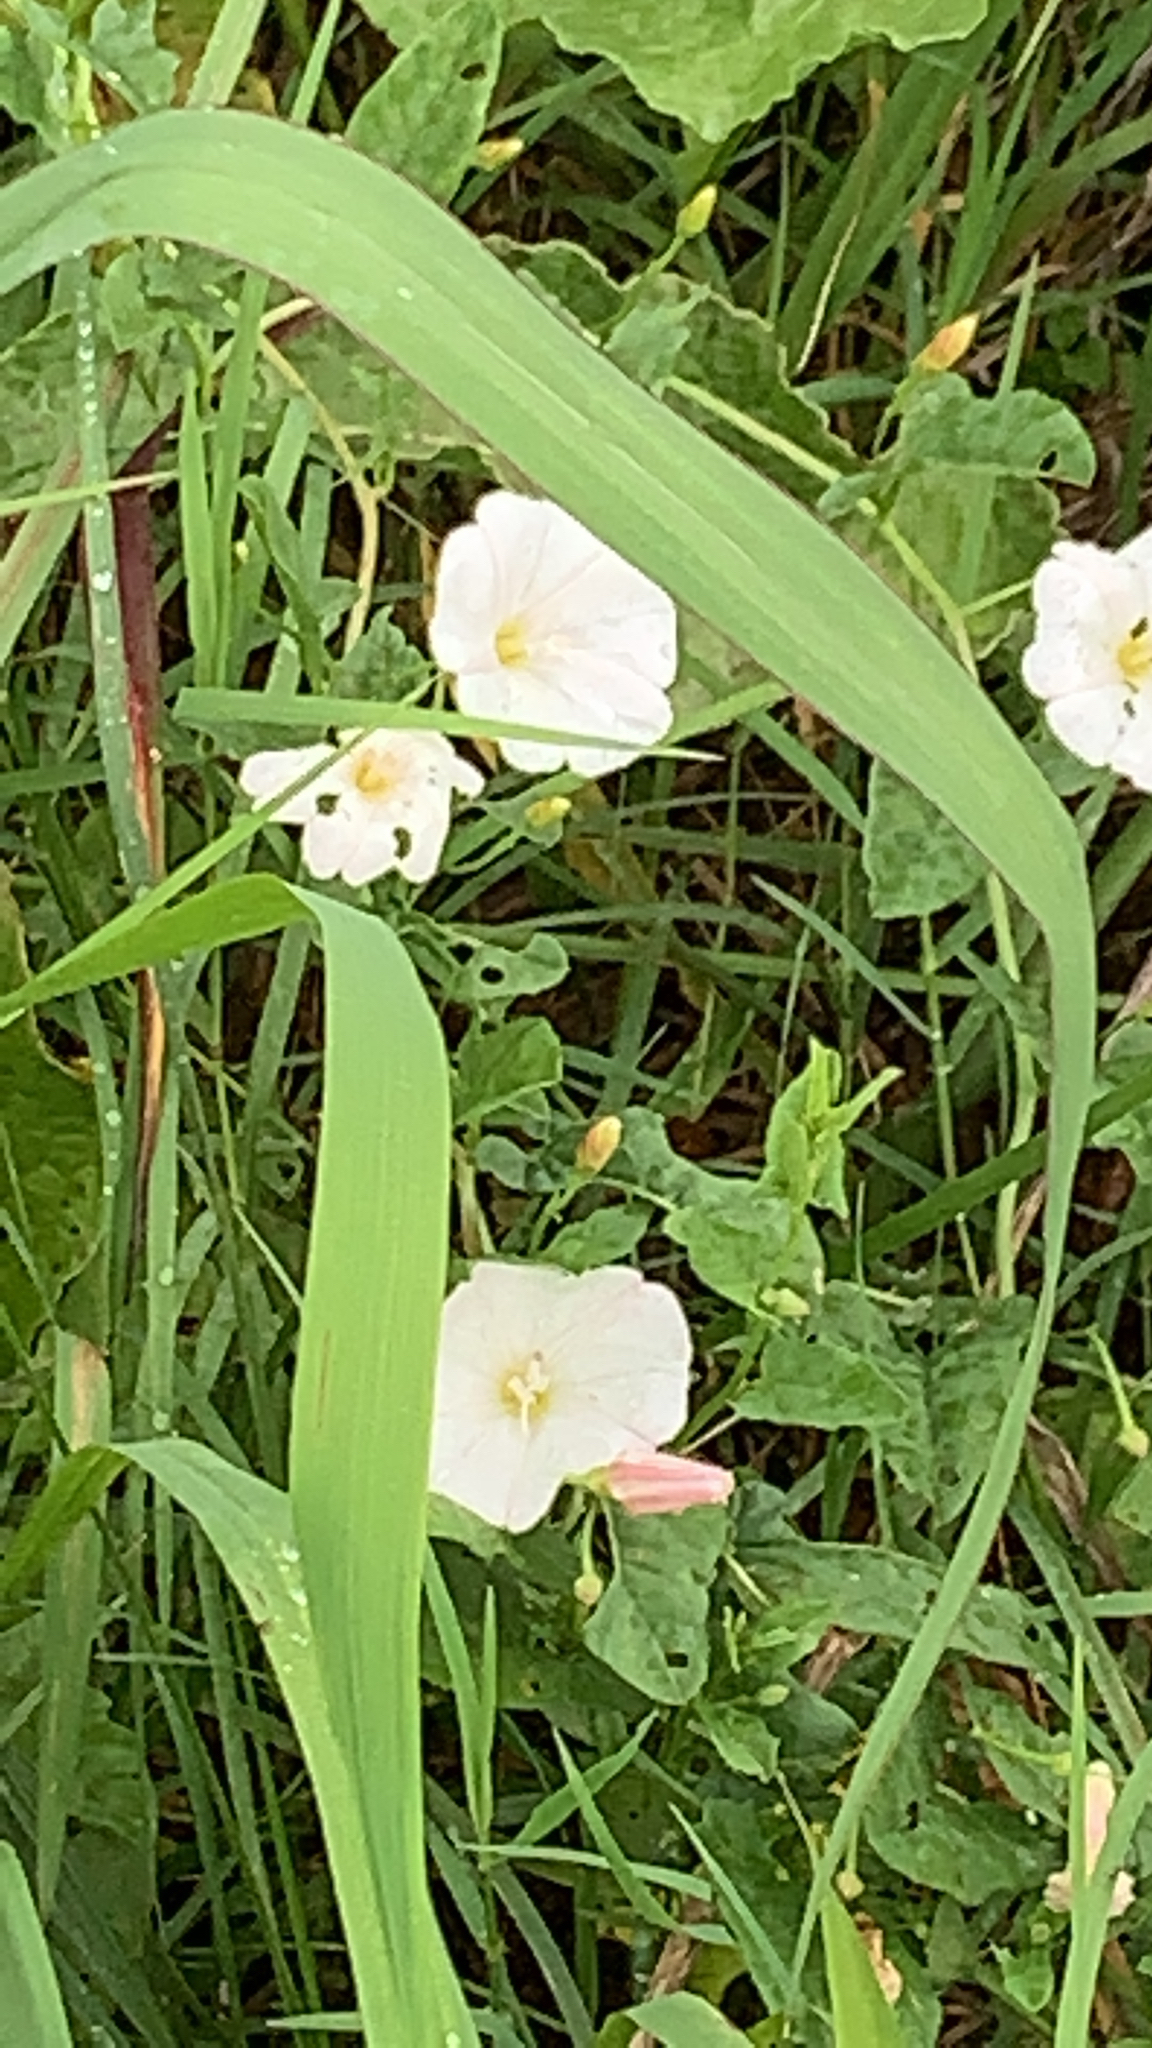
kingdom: Plantae
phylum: Tracheophyta
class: Magnoliopsida
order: Solanales
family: Convolvulaceae
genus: Convolvulus
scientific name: Convolvulus arvensis
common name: Field bindweed
